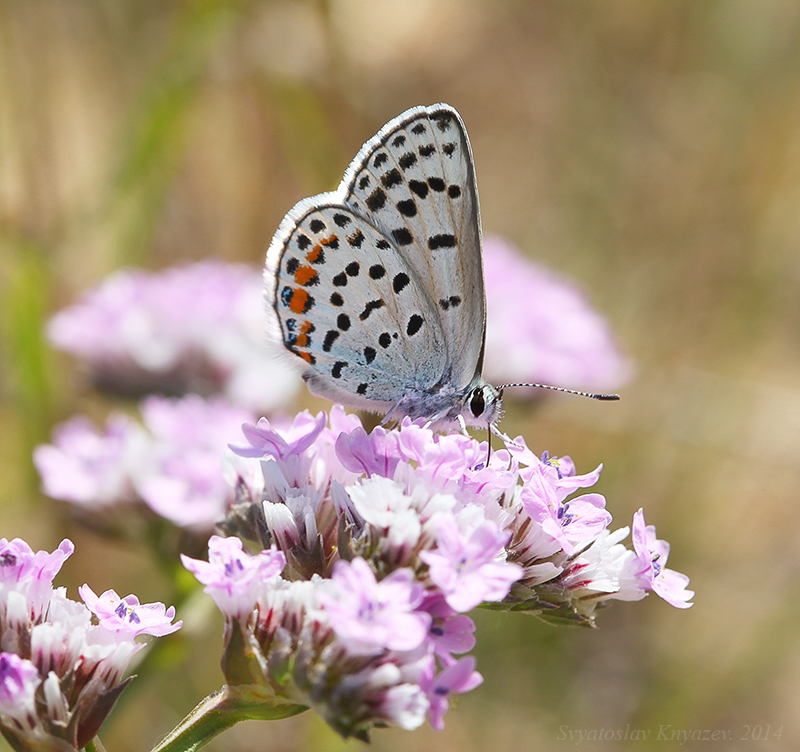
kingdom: Animalia
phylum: Arthropoda
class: Insecta
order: Lepidoptera
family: Lycaenidae
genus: Glabroculus
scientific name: Glabroculus cyane
